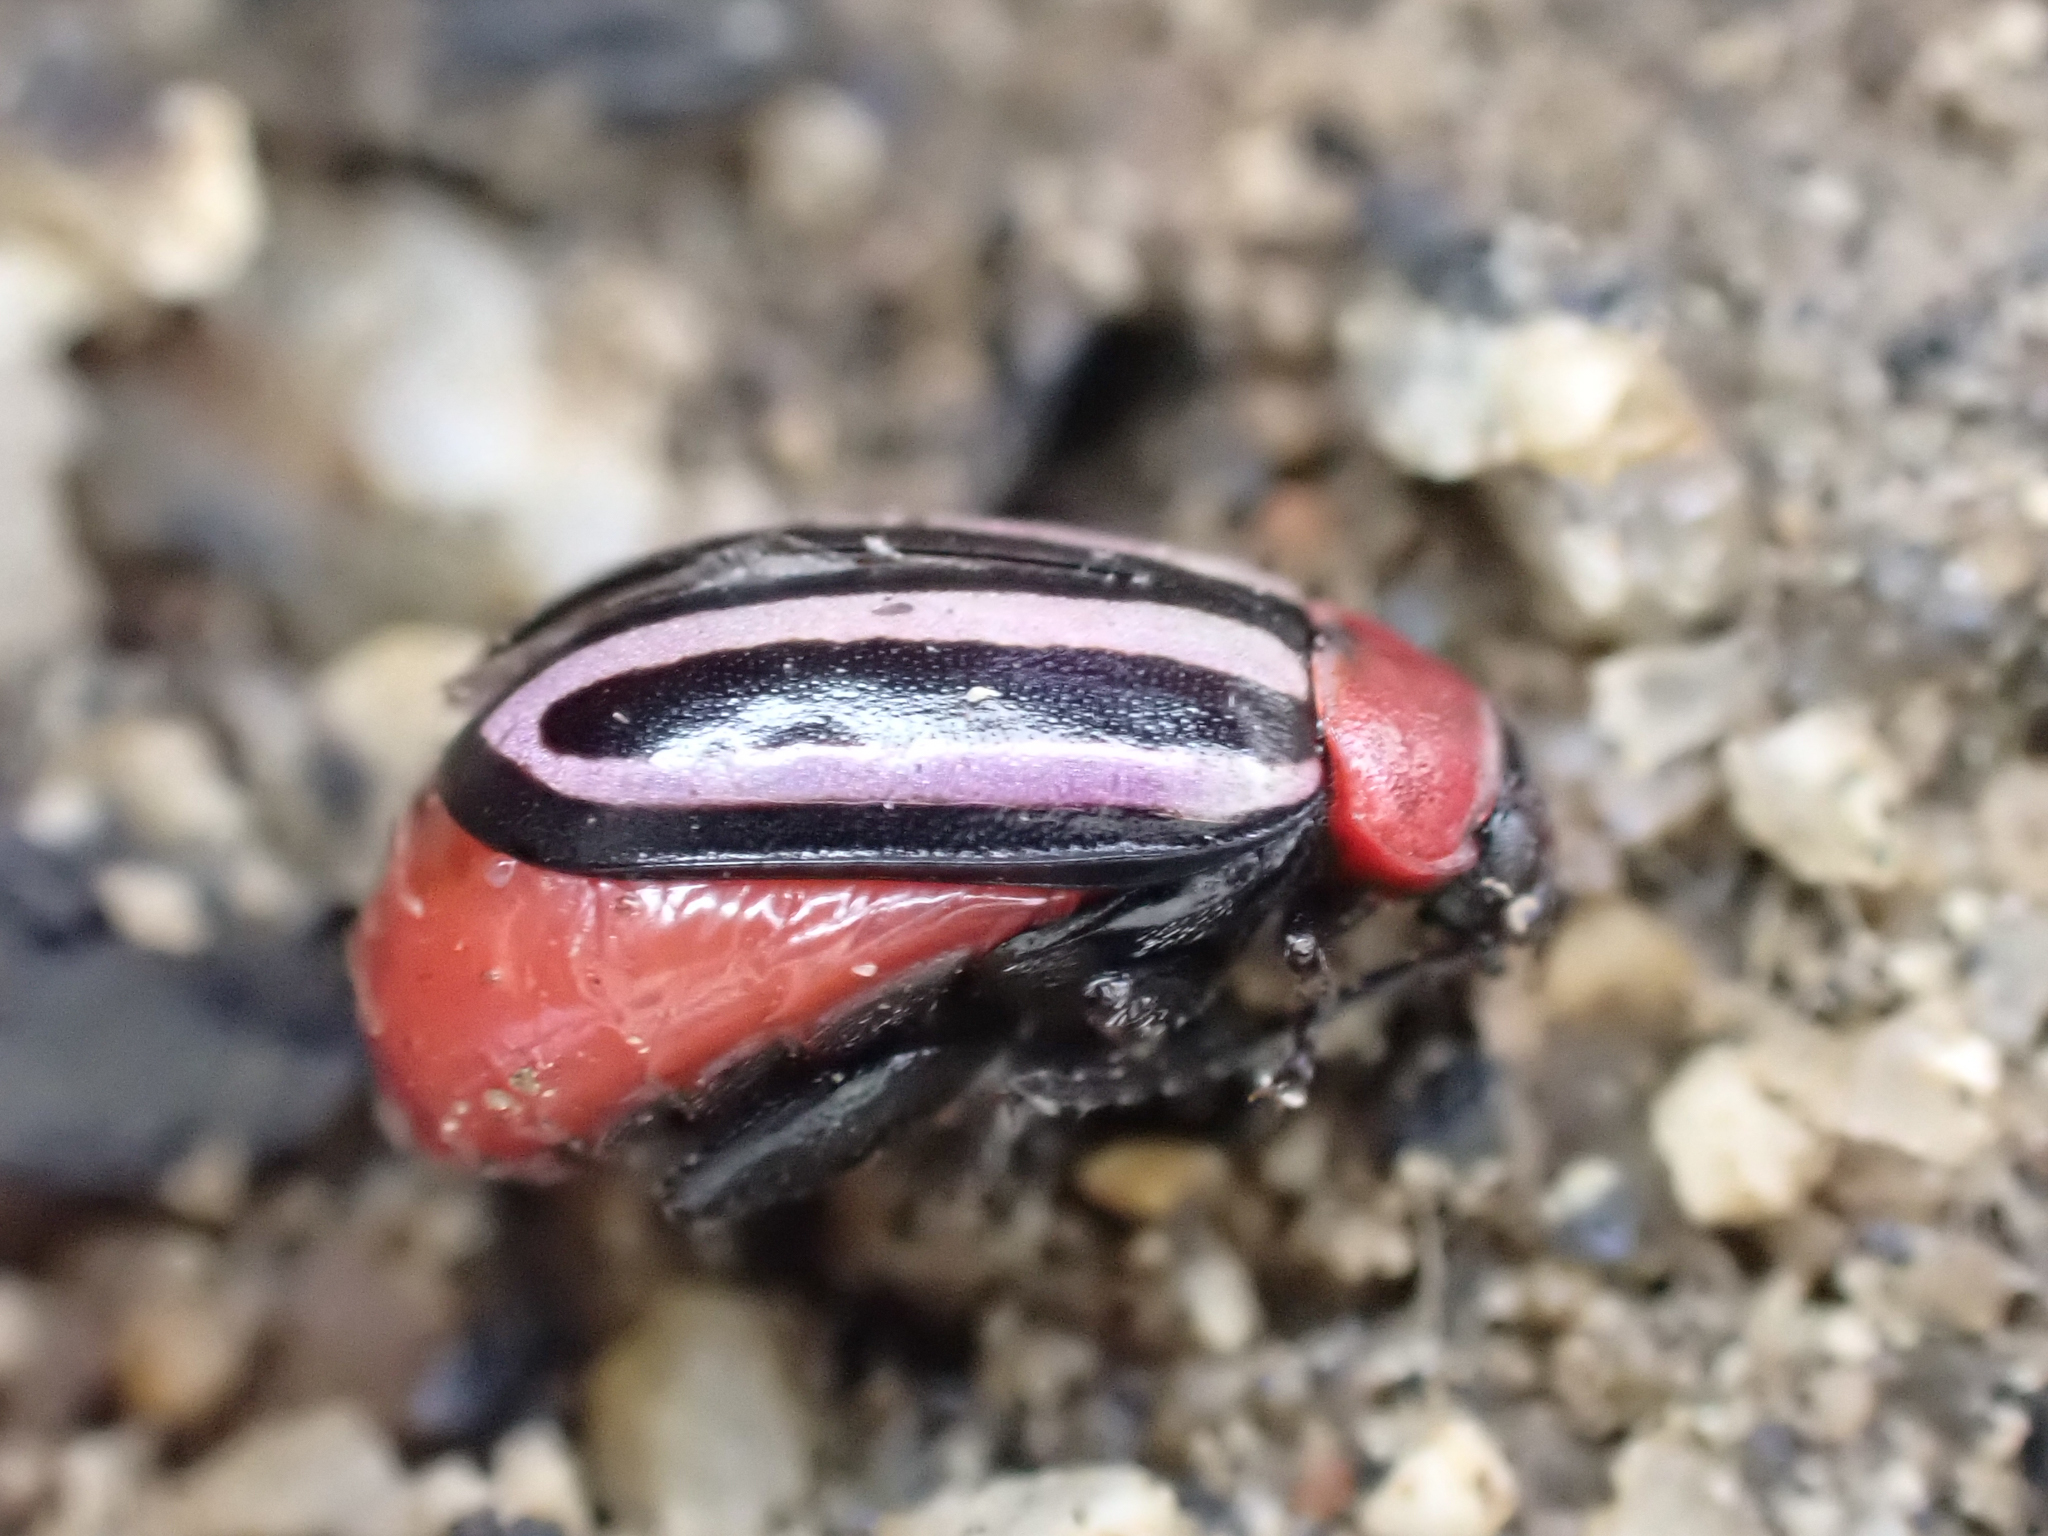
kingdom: Animalia
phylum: Arthropoda
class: Insecta
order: Coleoptera
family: Chrysomelidae
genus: Disonycha
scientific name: Disonycha maritima
